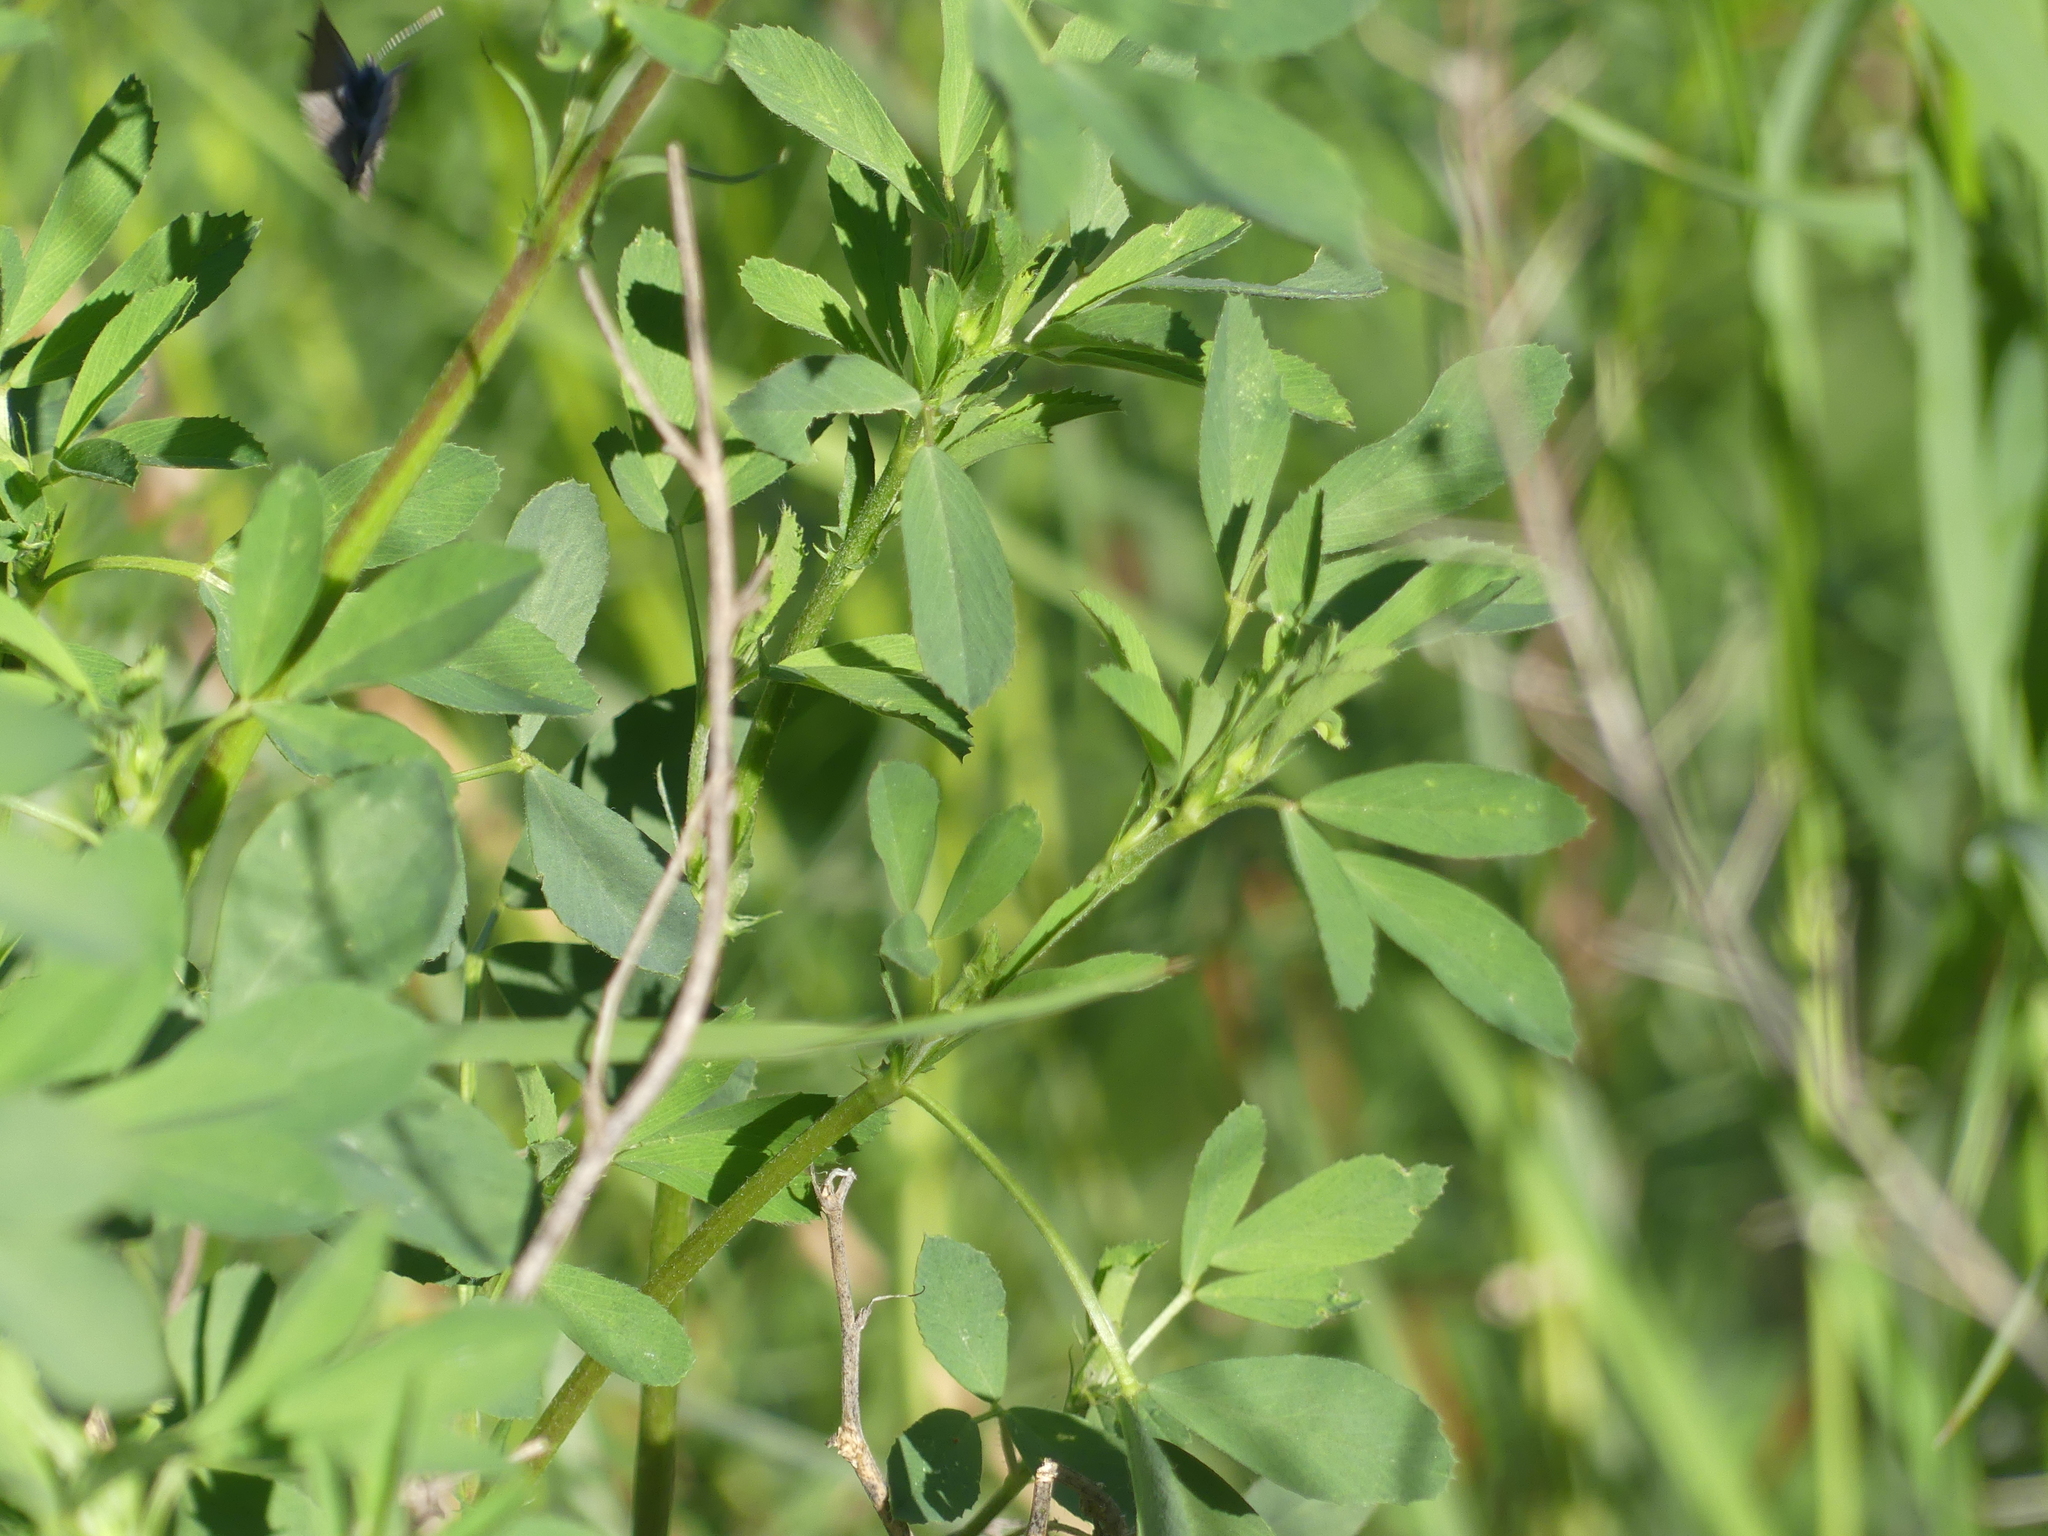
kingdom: Plantae
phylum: Tracheophyta
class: Magnoliopsida
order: Fabales
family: Fabaceae
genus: Medicago
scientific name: Medicago sativa
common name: Alfalfa
